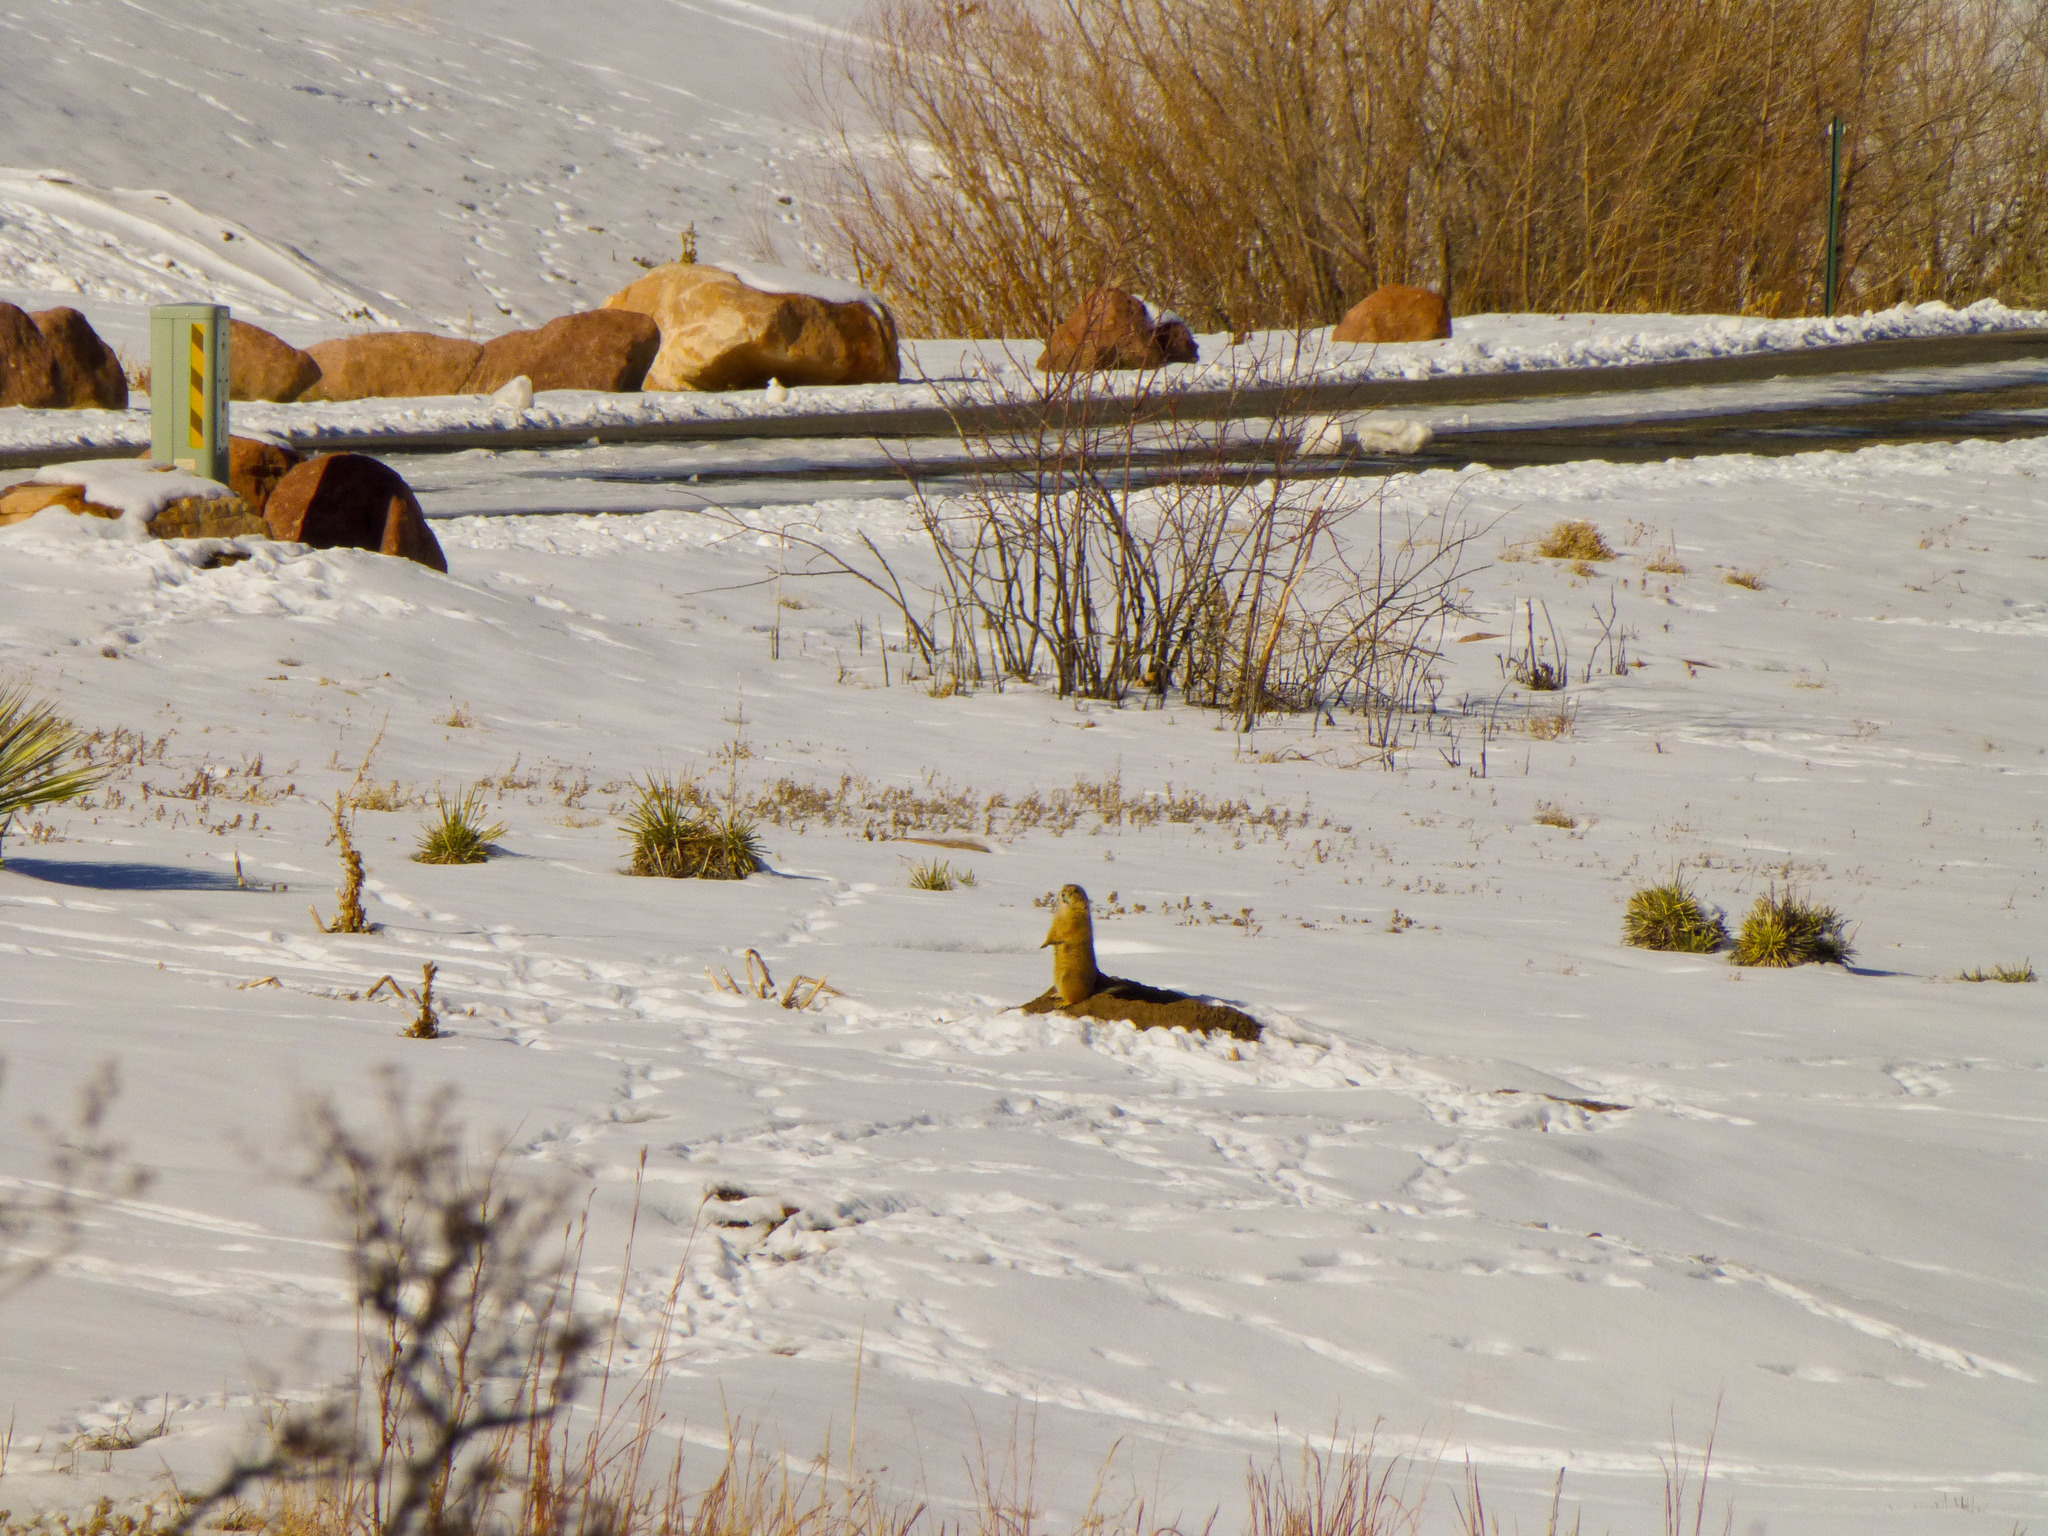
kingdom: Animalia
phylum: Chordata
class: Mammalia
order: Carnivora
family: Canidae
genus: Canis
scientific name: Canis latrans
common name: Coyote
